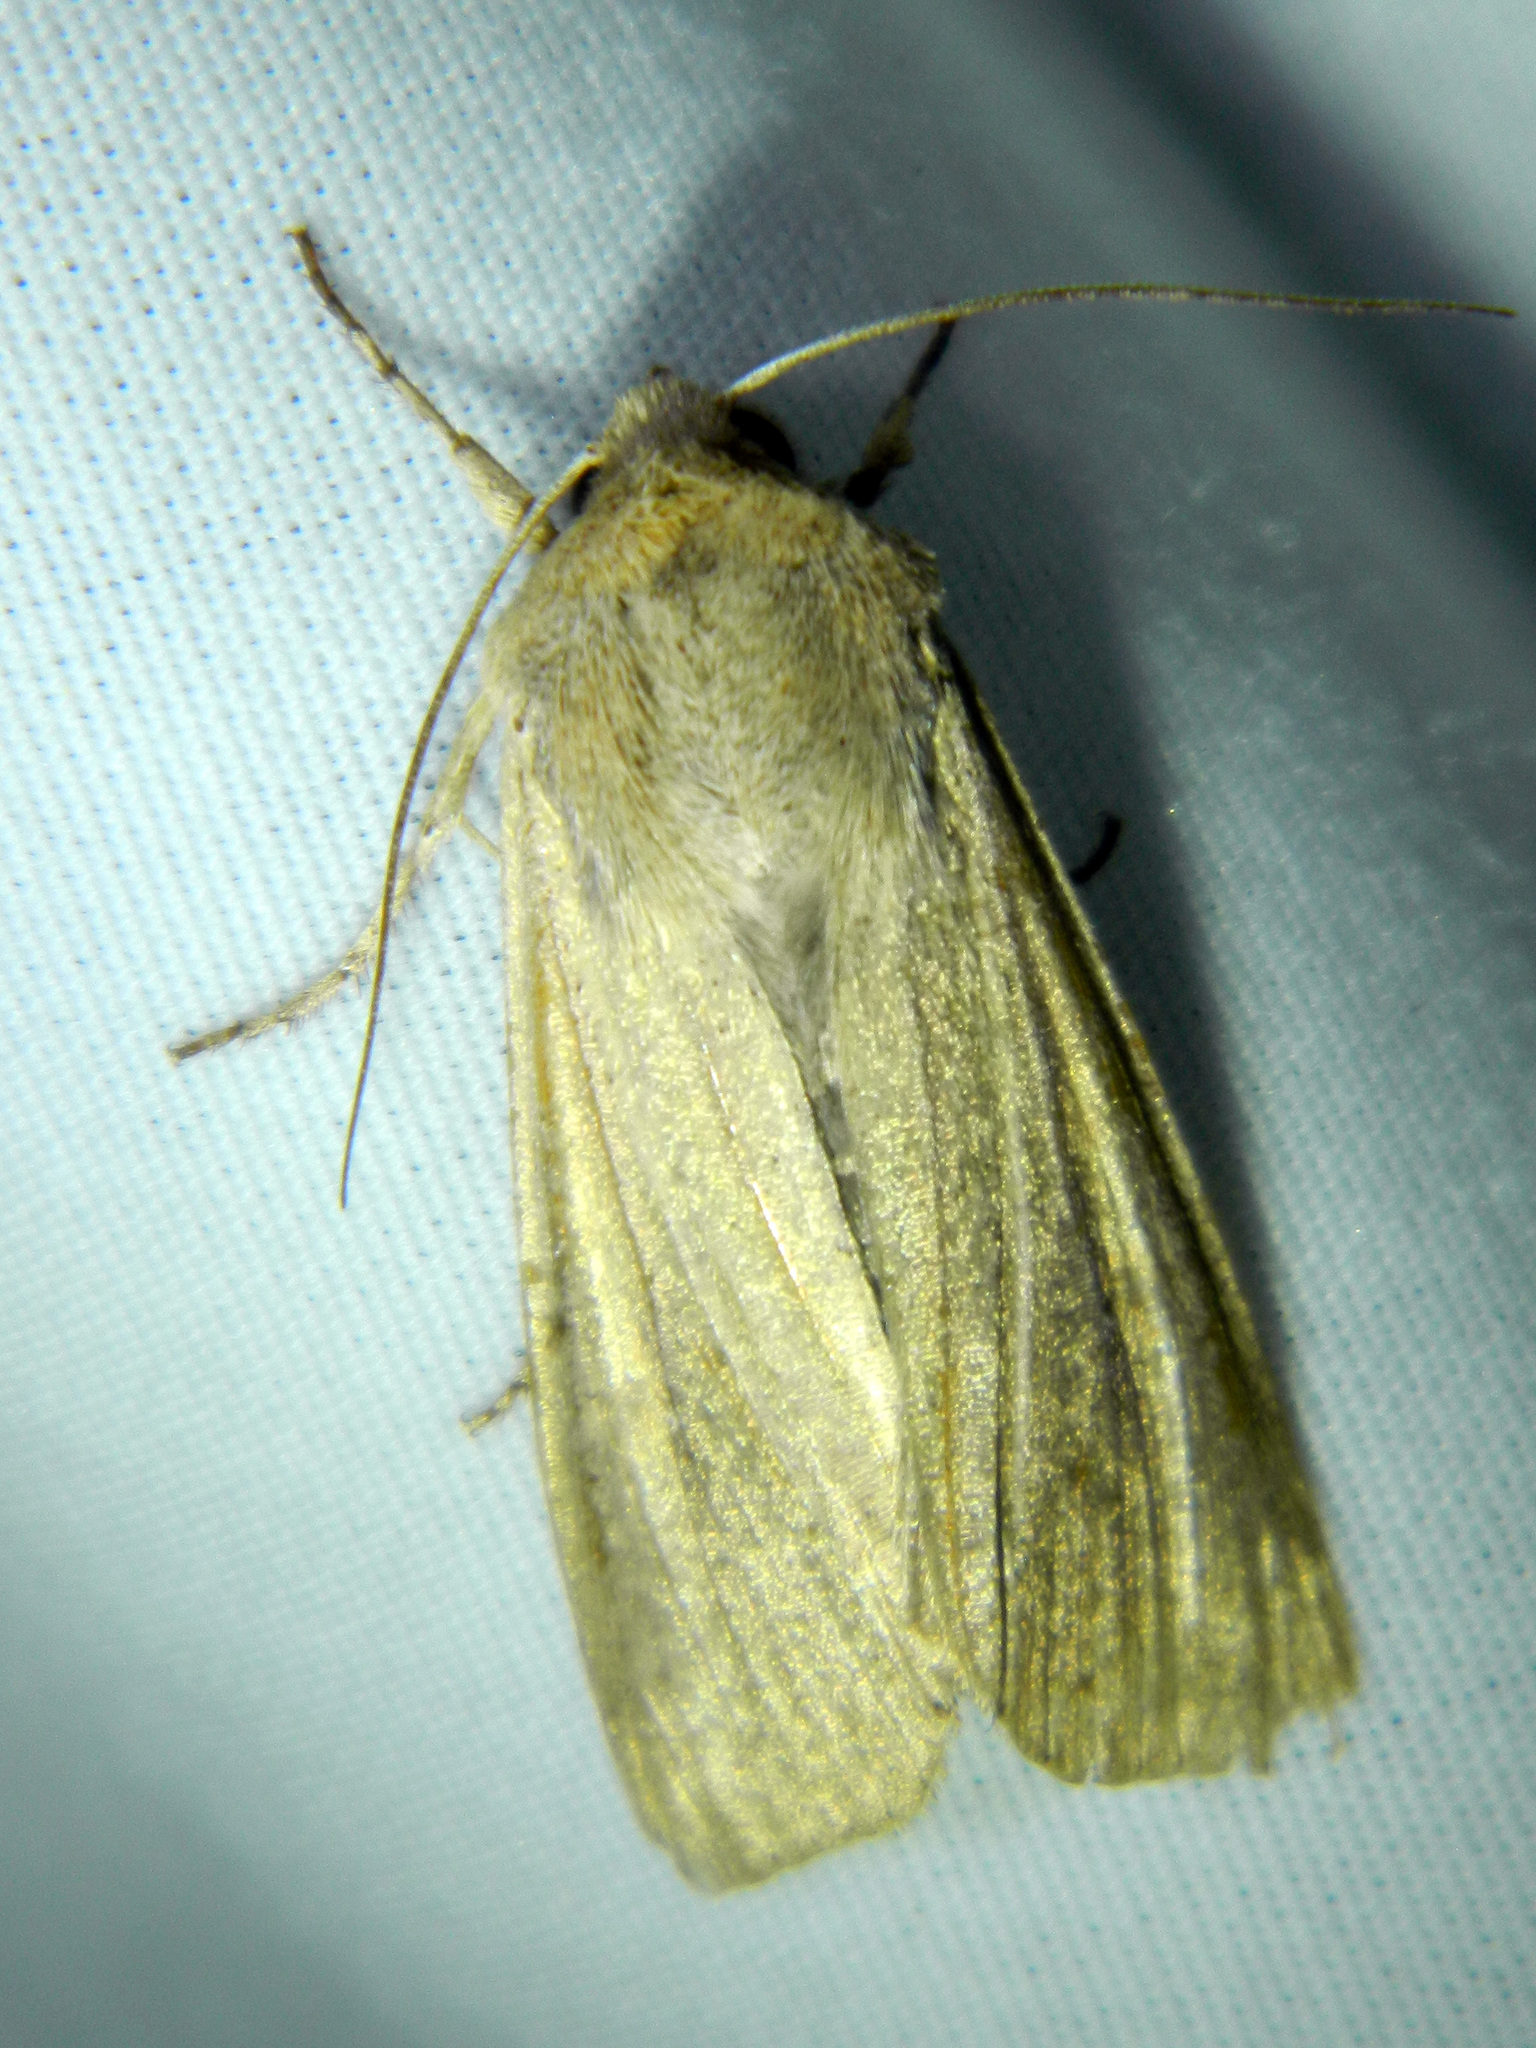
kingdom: Animalia
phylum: Arthropoda
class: Insecta
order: Lepidoptera
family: Noctuidae
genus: Mythimna
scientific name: Mythimna oxygala
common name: Lesser wainscot
